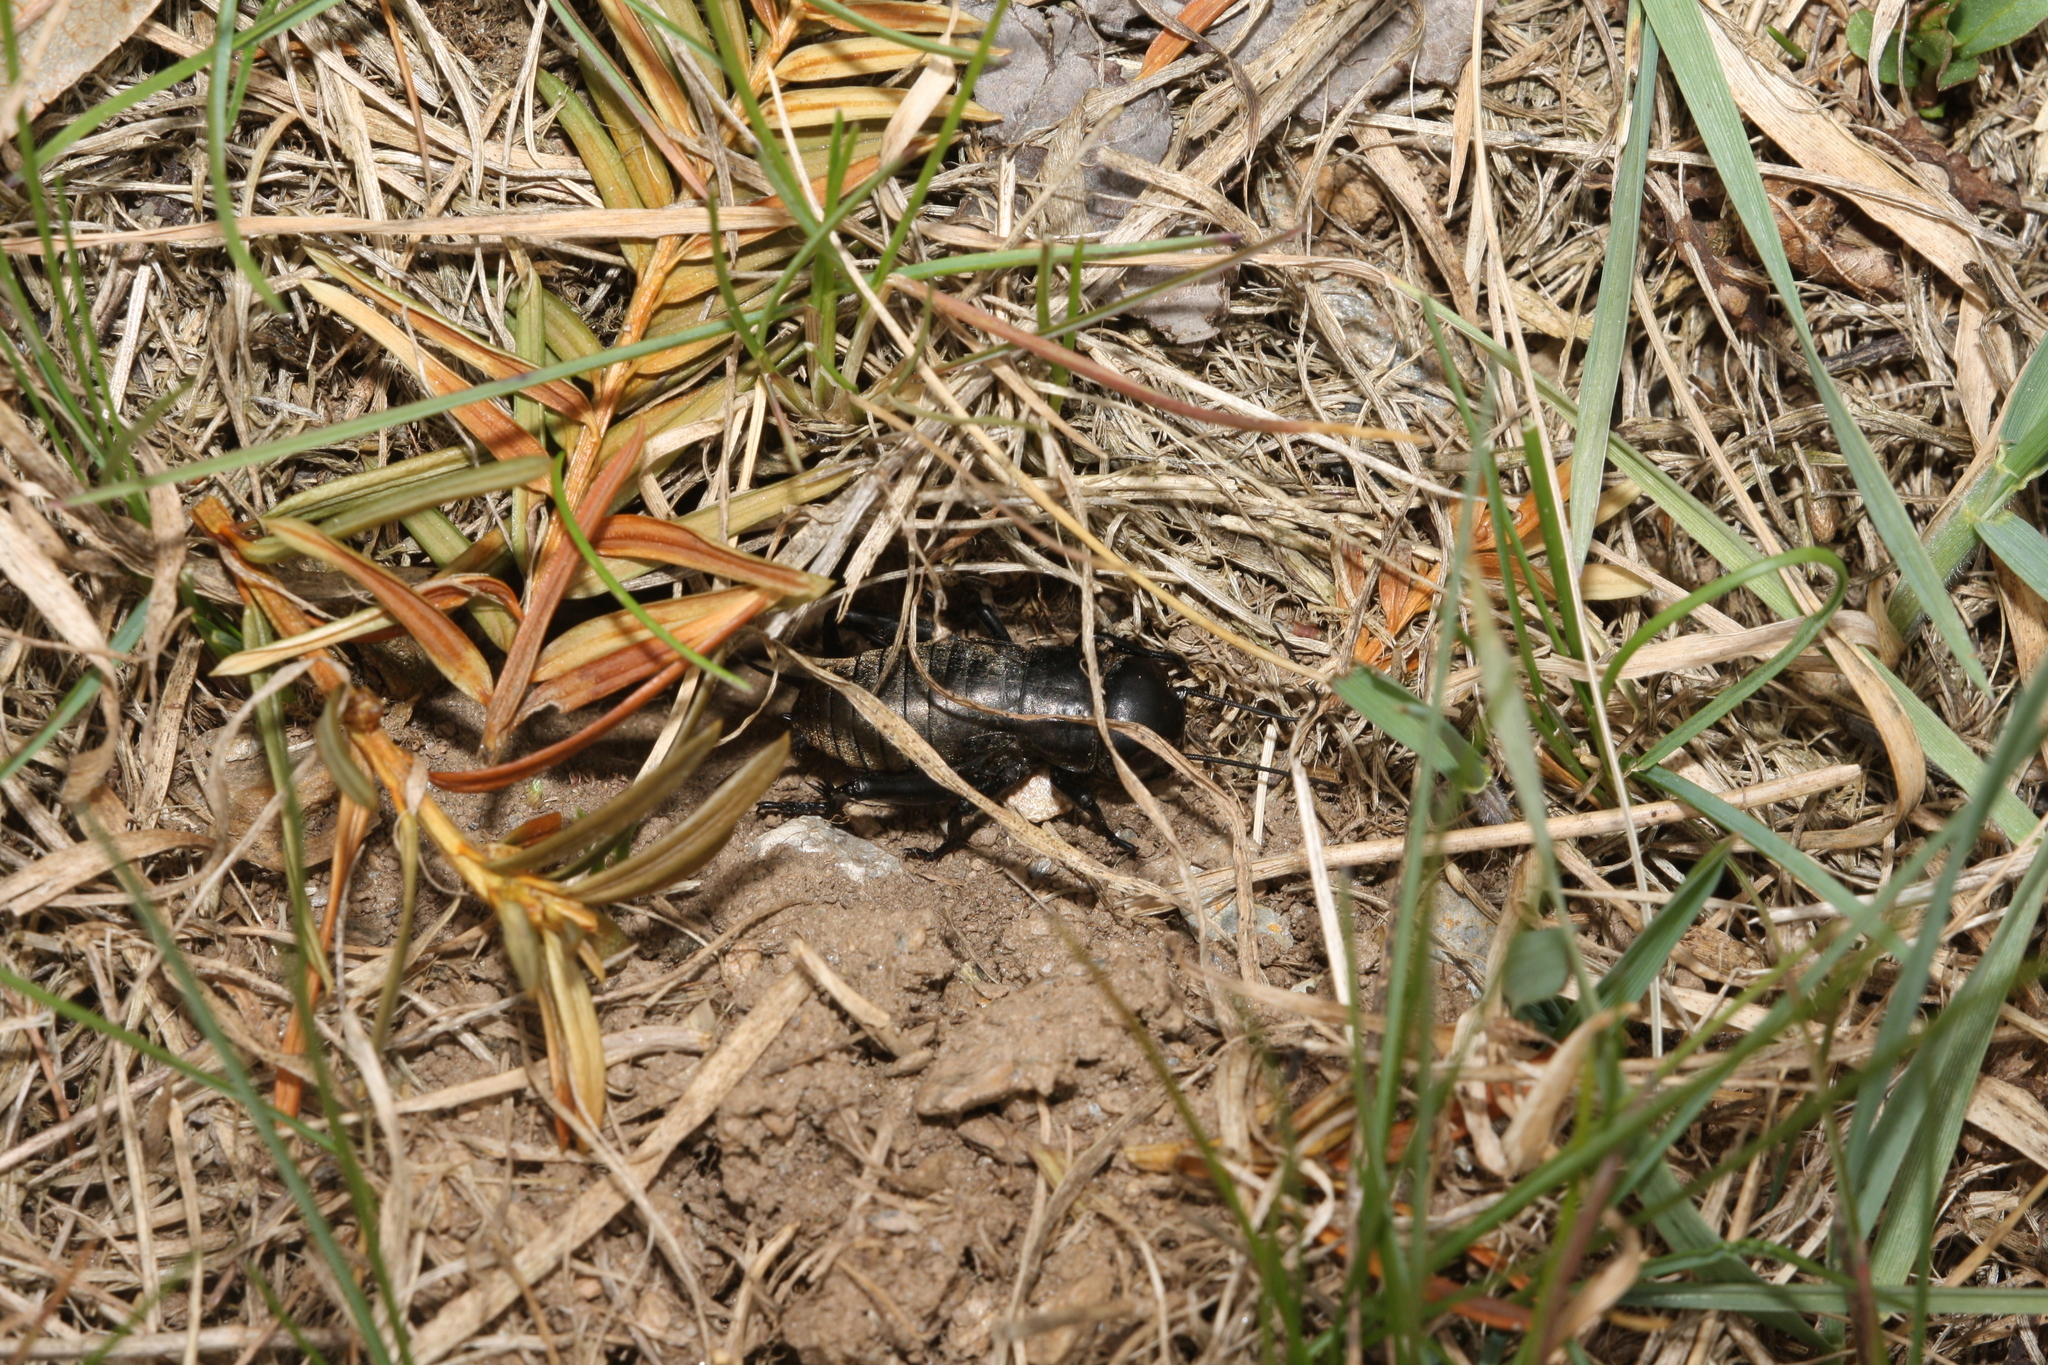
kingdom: Animalia
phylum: Arthropoda
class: Insecta
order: Orthoptera
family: Gryllidae
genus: Gryllus
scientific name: Gryllus campestris
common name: Field cricket
